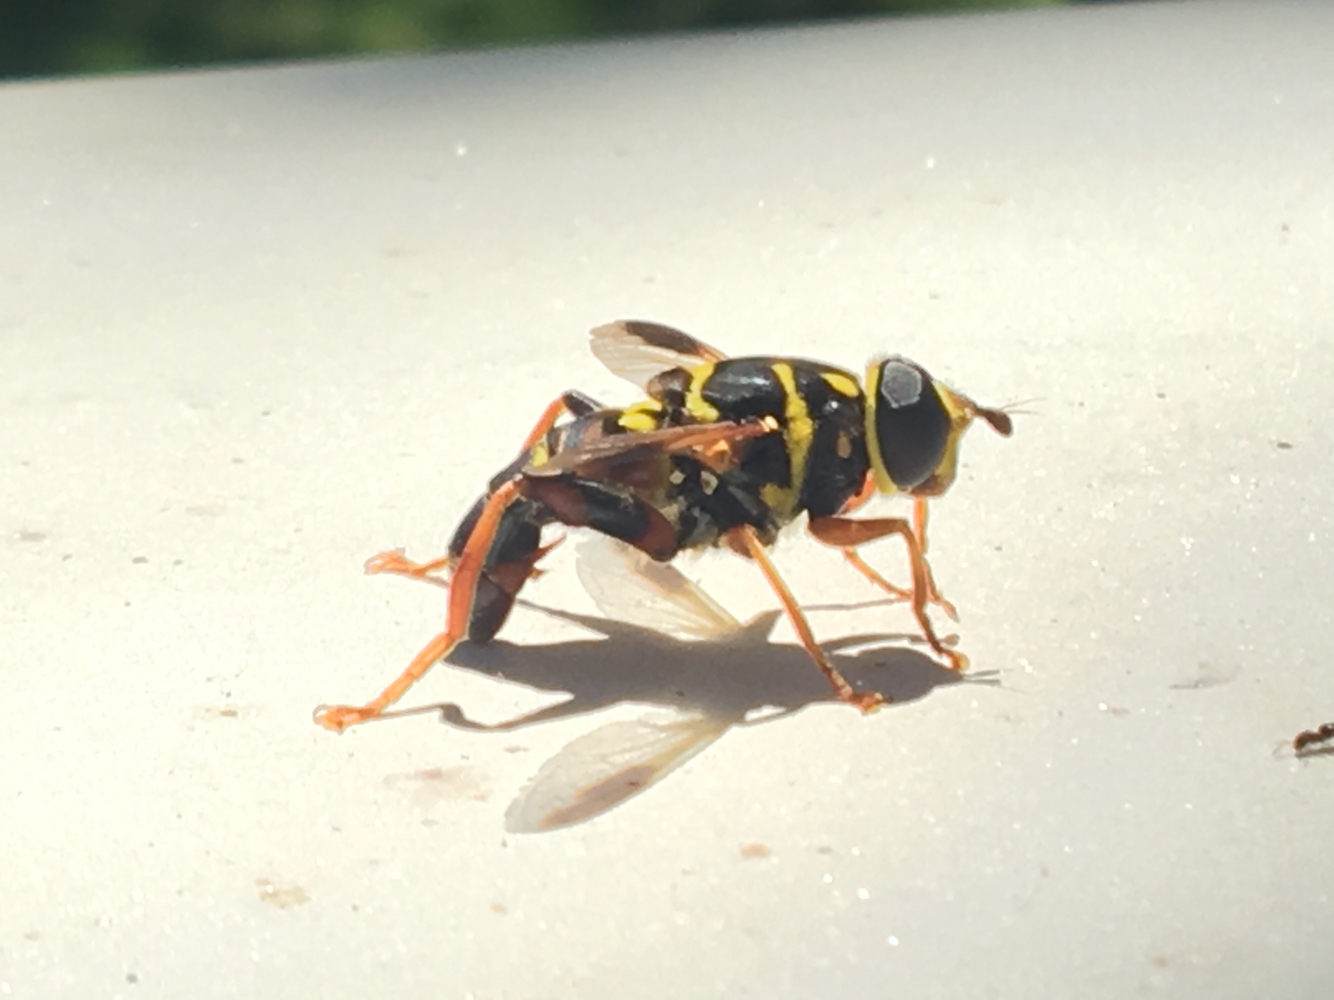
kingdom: Animalia
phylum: Arthropoda
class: Insecta
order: Diptera
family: Syrphidae
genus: Meromacrus
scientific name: Meromacrus acutus
